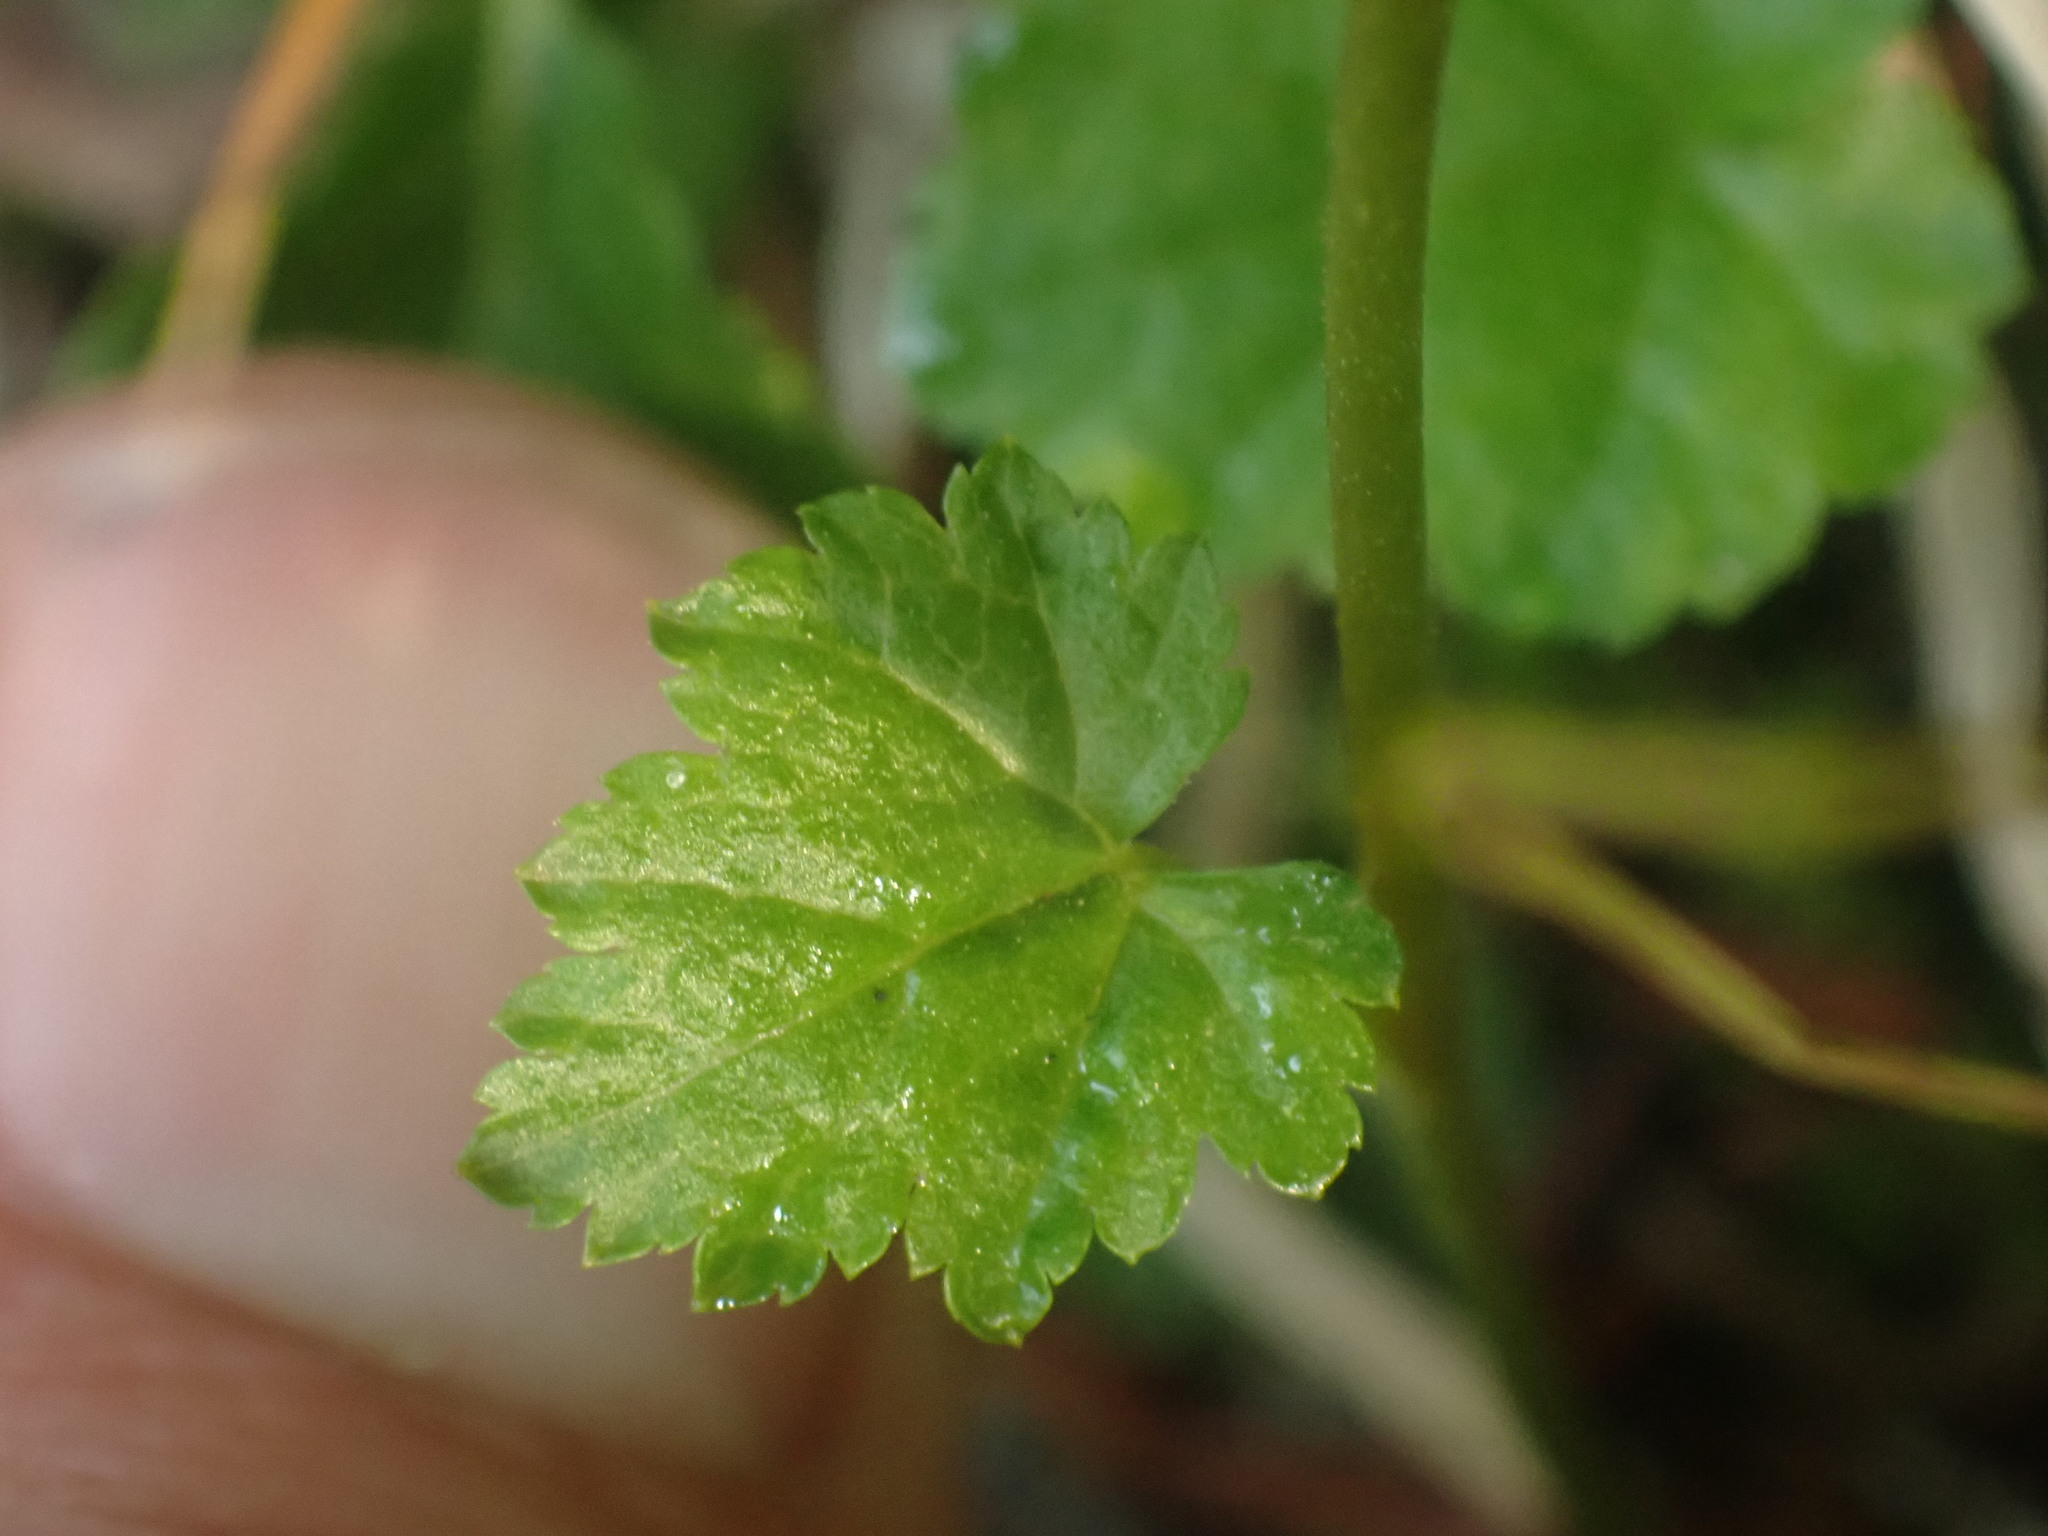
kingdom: Plantae
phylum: Tracheophyta
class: Magnoliopsida
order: Saxifragales
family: Saxifragaceae
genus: Pectiantia
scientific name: Pectiantia pentandra
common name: Alpine bishop's-cap
